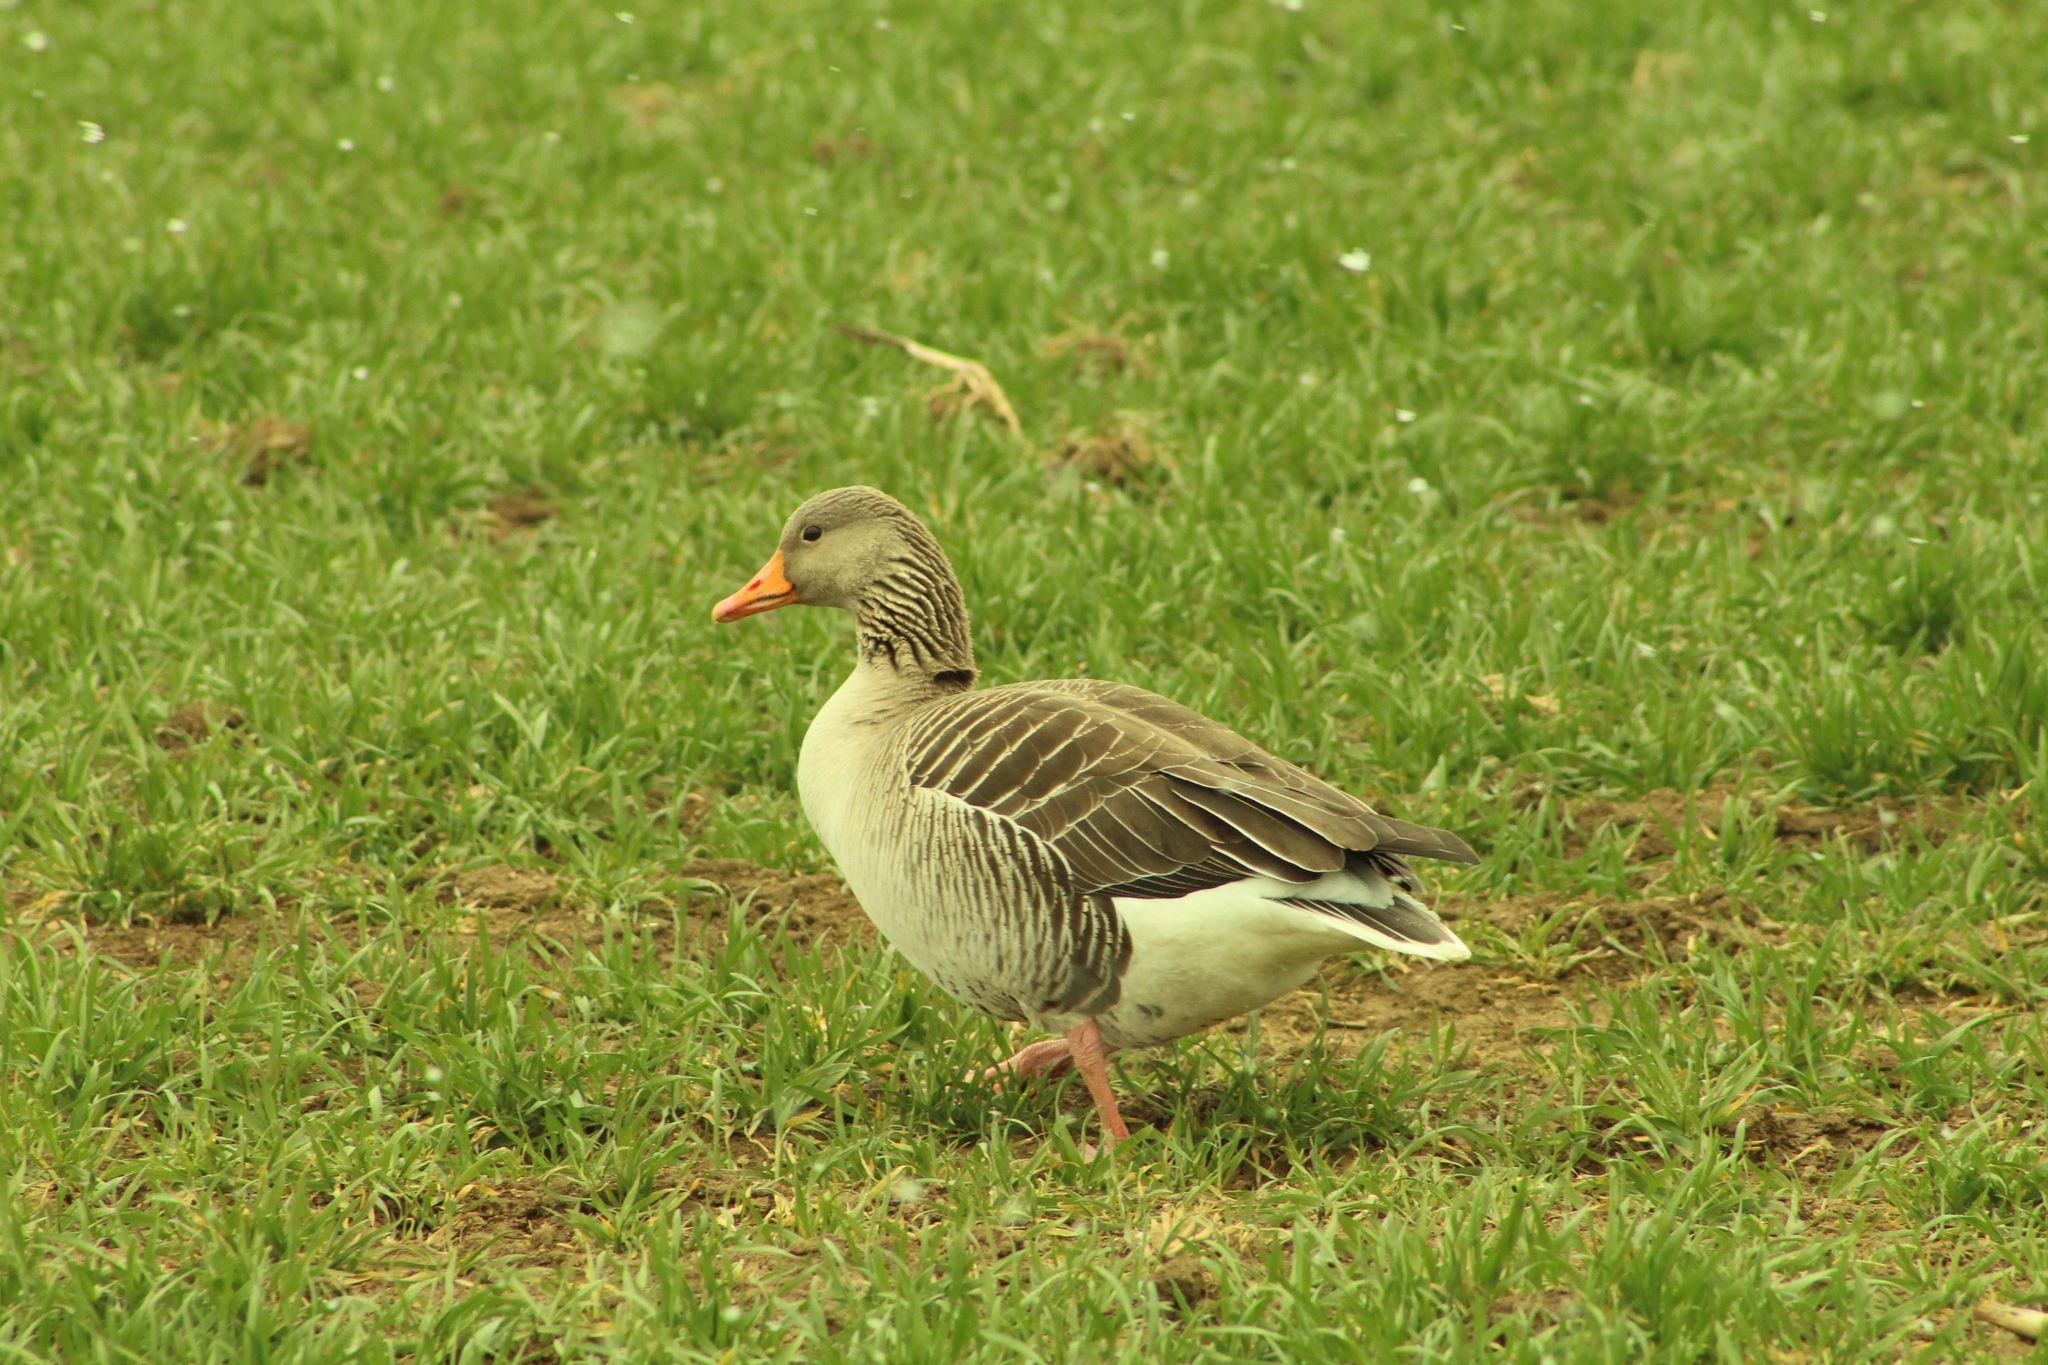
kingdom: Animalia
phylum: Chordata
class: Aves
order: Anseriformes
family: Anatidae
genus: Anser
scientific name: Anser anser
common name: Greylag goose
